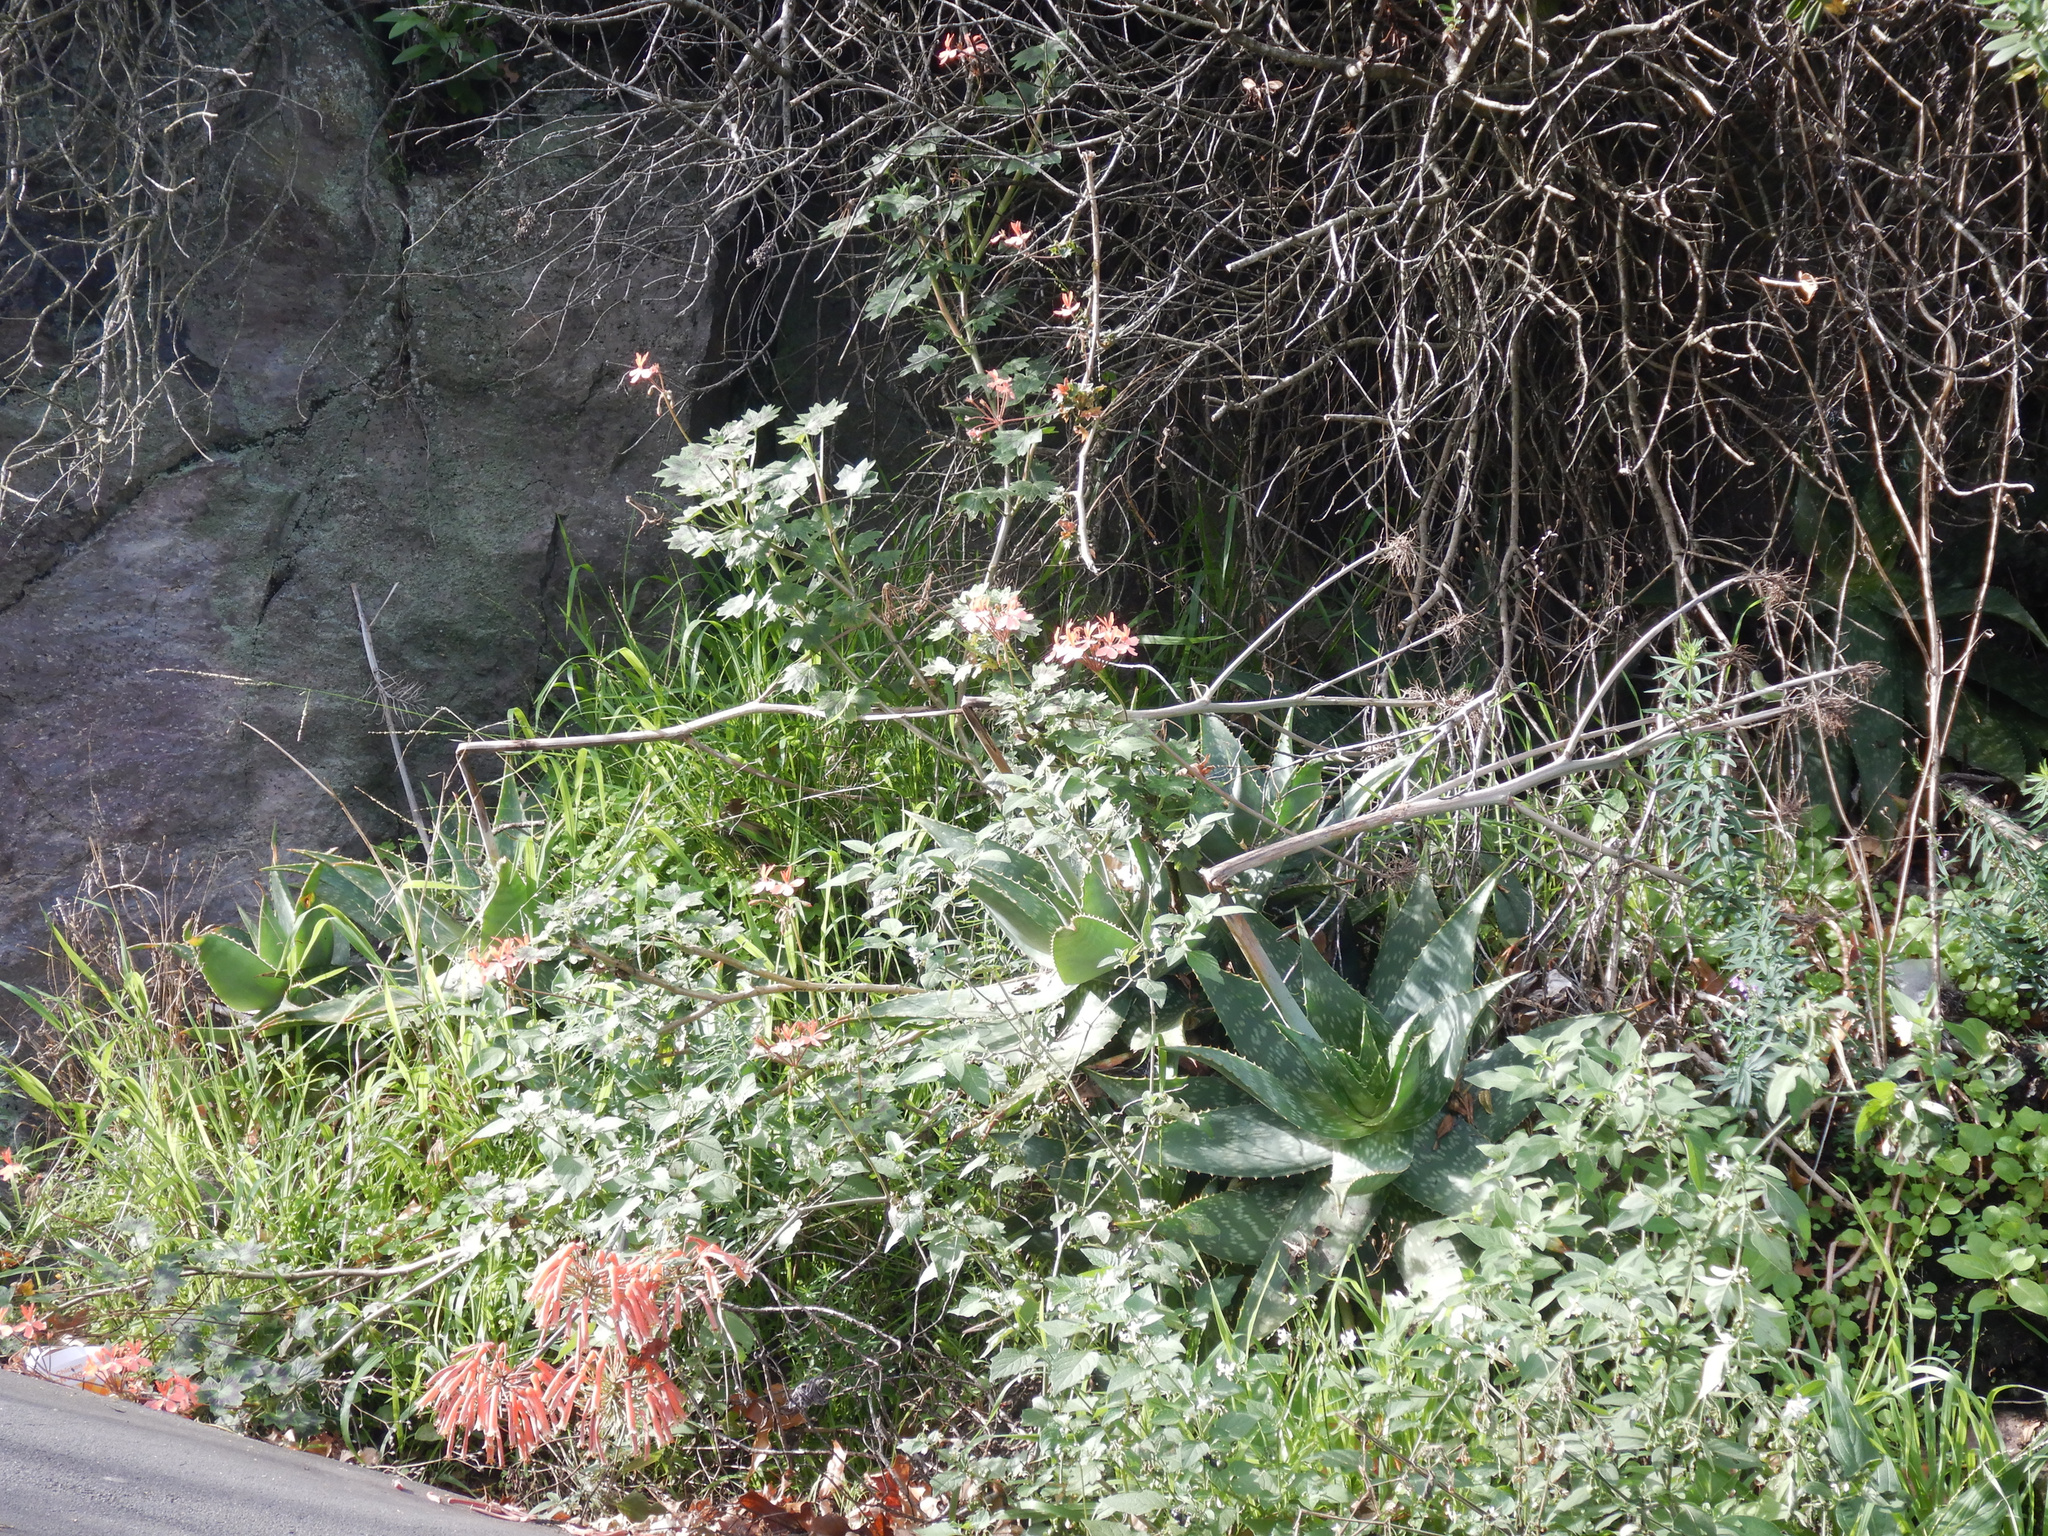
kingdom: Plantae
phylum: Tracheophyta
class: Magnoliopsida
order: Geraniales
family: Geraniaceae
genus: Pelargonium
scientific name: Pelargonium hybridum
